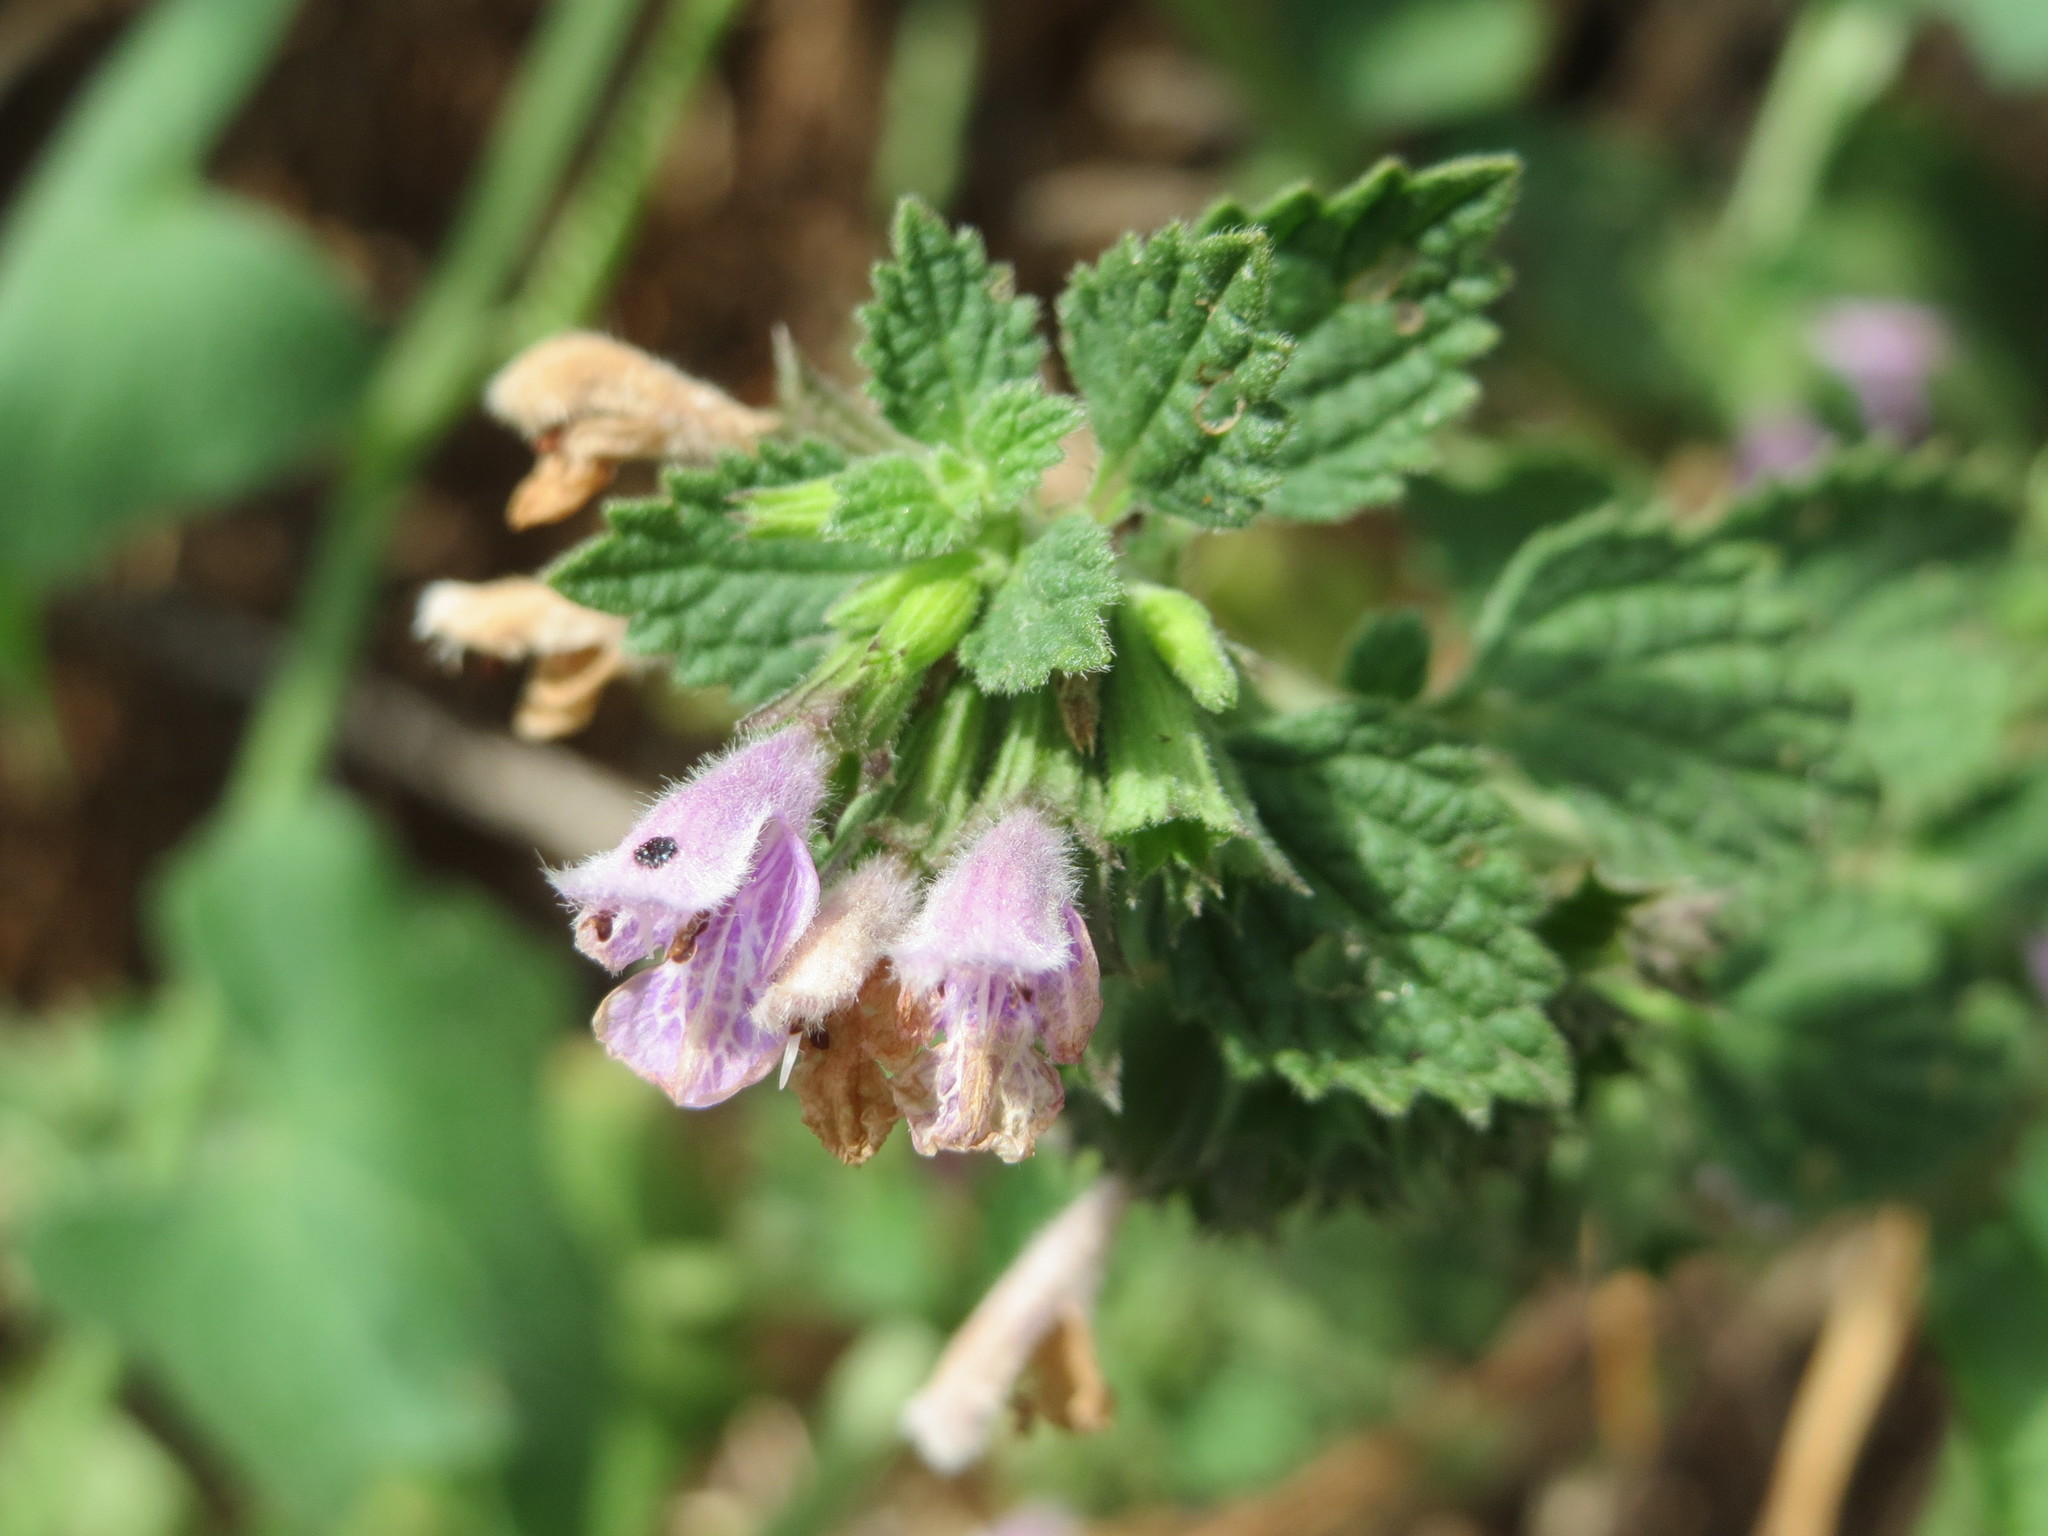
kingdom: Plantae
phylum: Tracheophyta
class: Magnoliopsida
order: Lamiales
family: Lamiaceae
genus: Ballota
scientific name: Ballota nigra
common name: Black horehound
